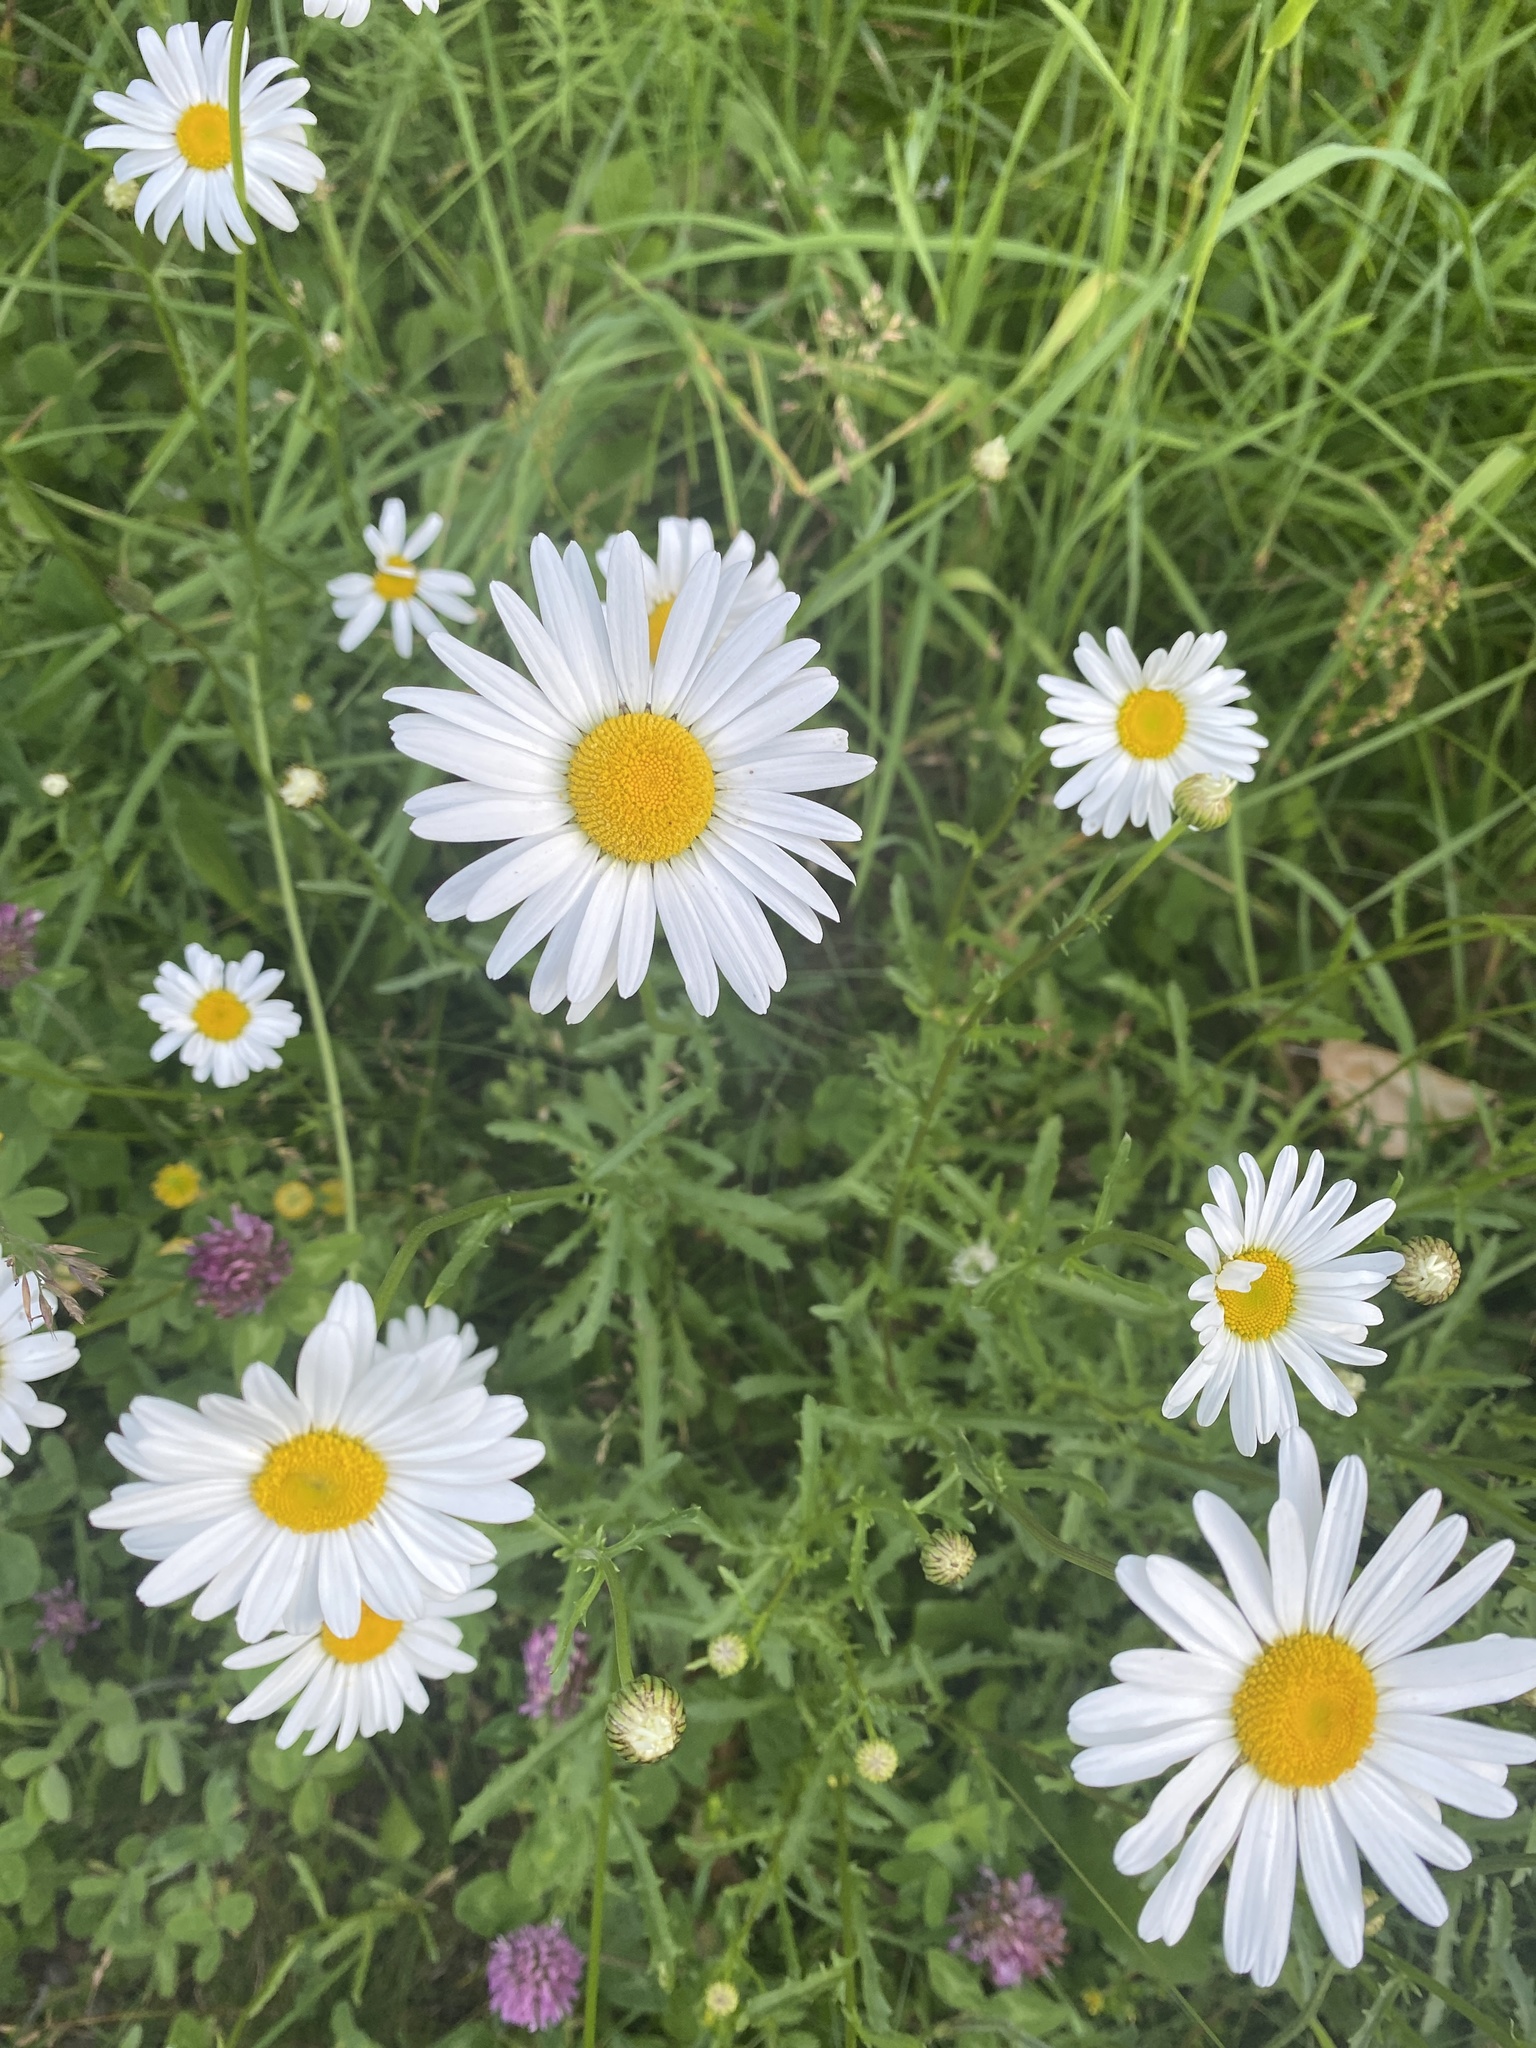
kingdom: Plantae
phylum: Tracheophyta
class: Magnoliopsida
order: Asterales
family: Asteraceae
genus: Leucanthemum
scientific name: Leucanthemum vulgare
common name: Oxeye daisy
